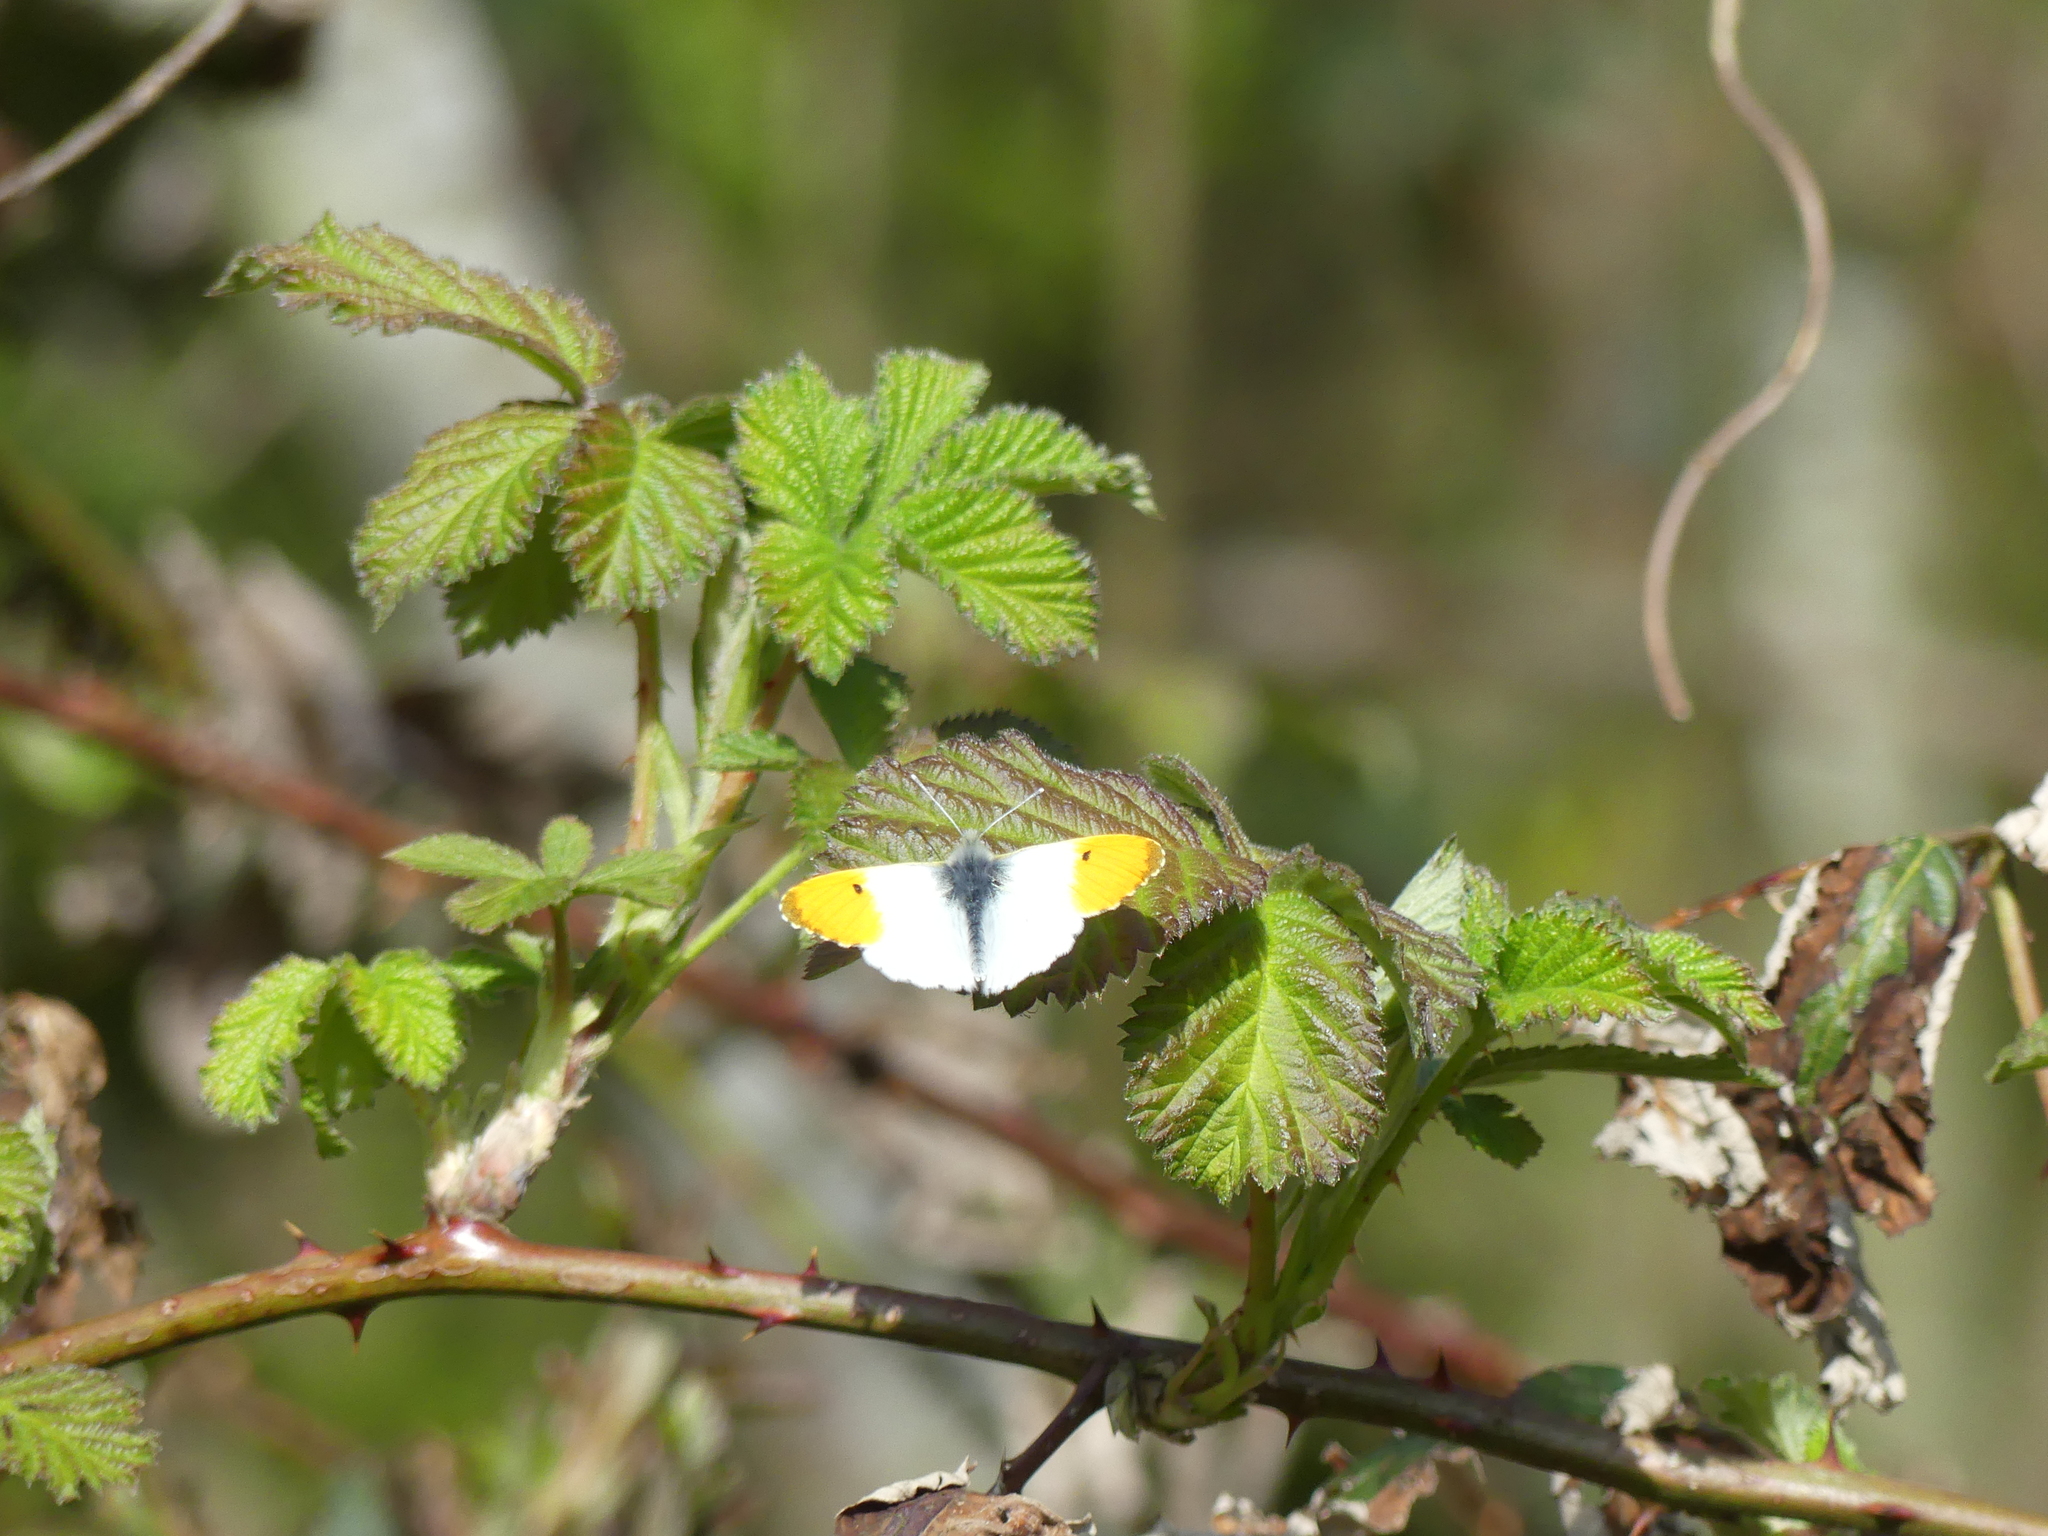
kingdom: Animalia
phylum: Arthropoda
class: Insecta
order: Lepidoptera
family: Pieridae
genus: Anthocharis
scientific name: Anthocharis cardamines
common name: Orange-tip
